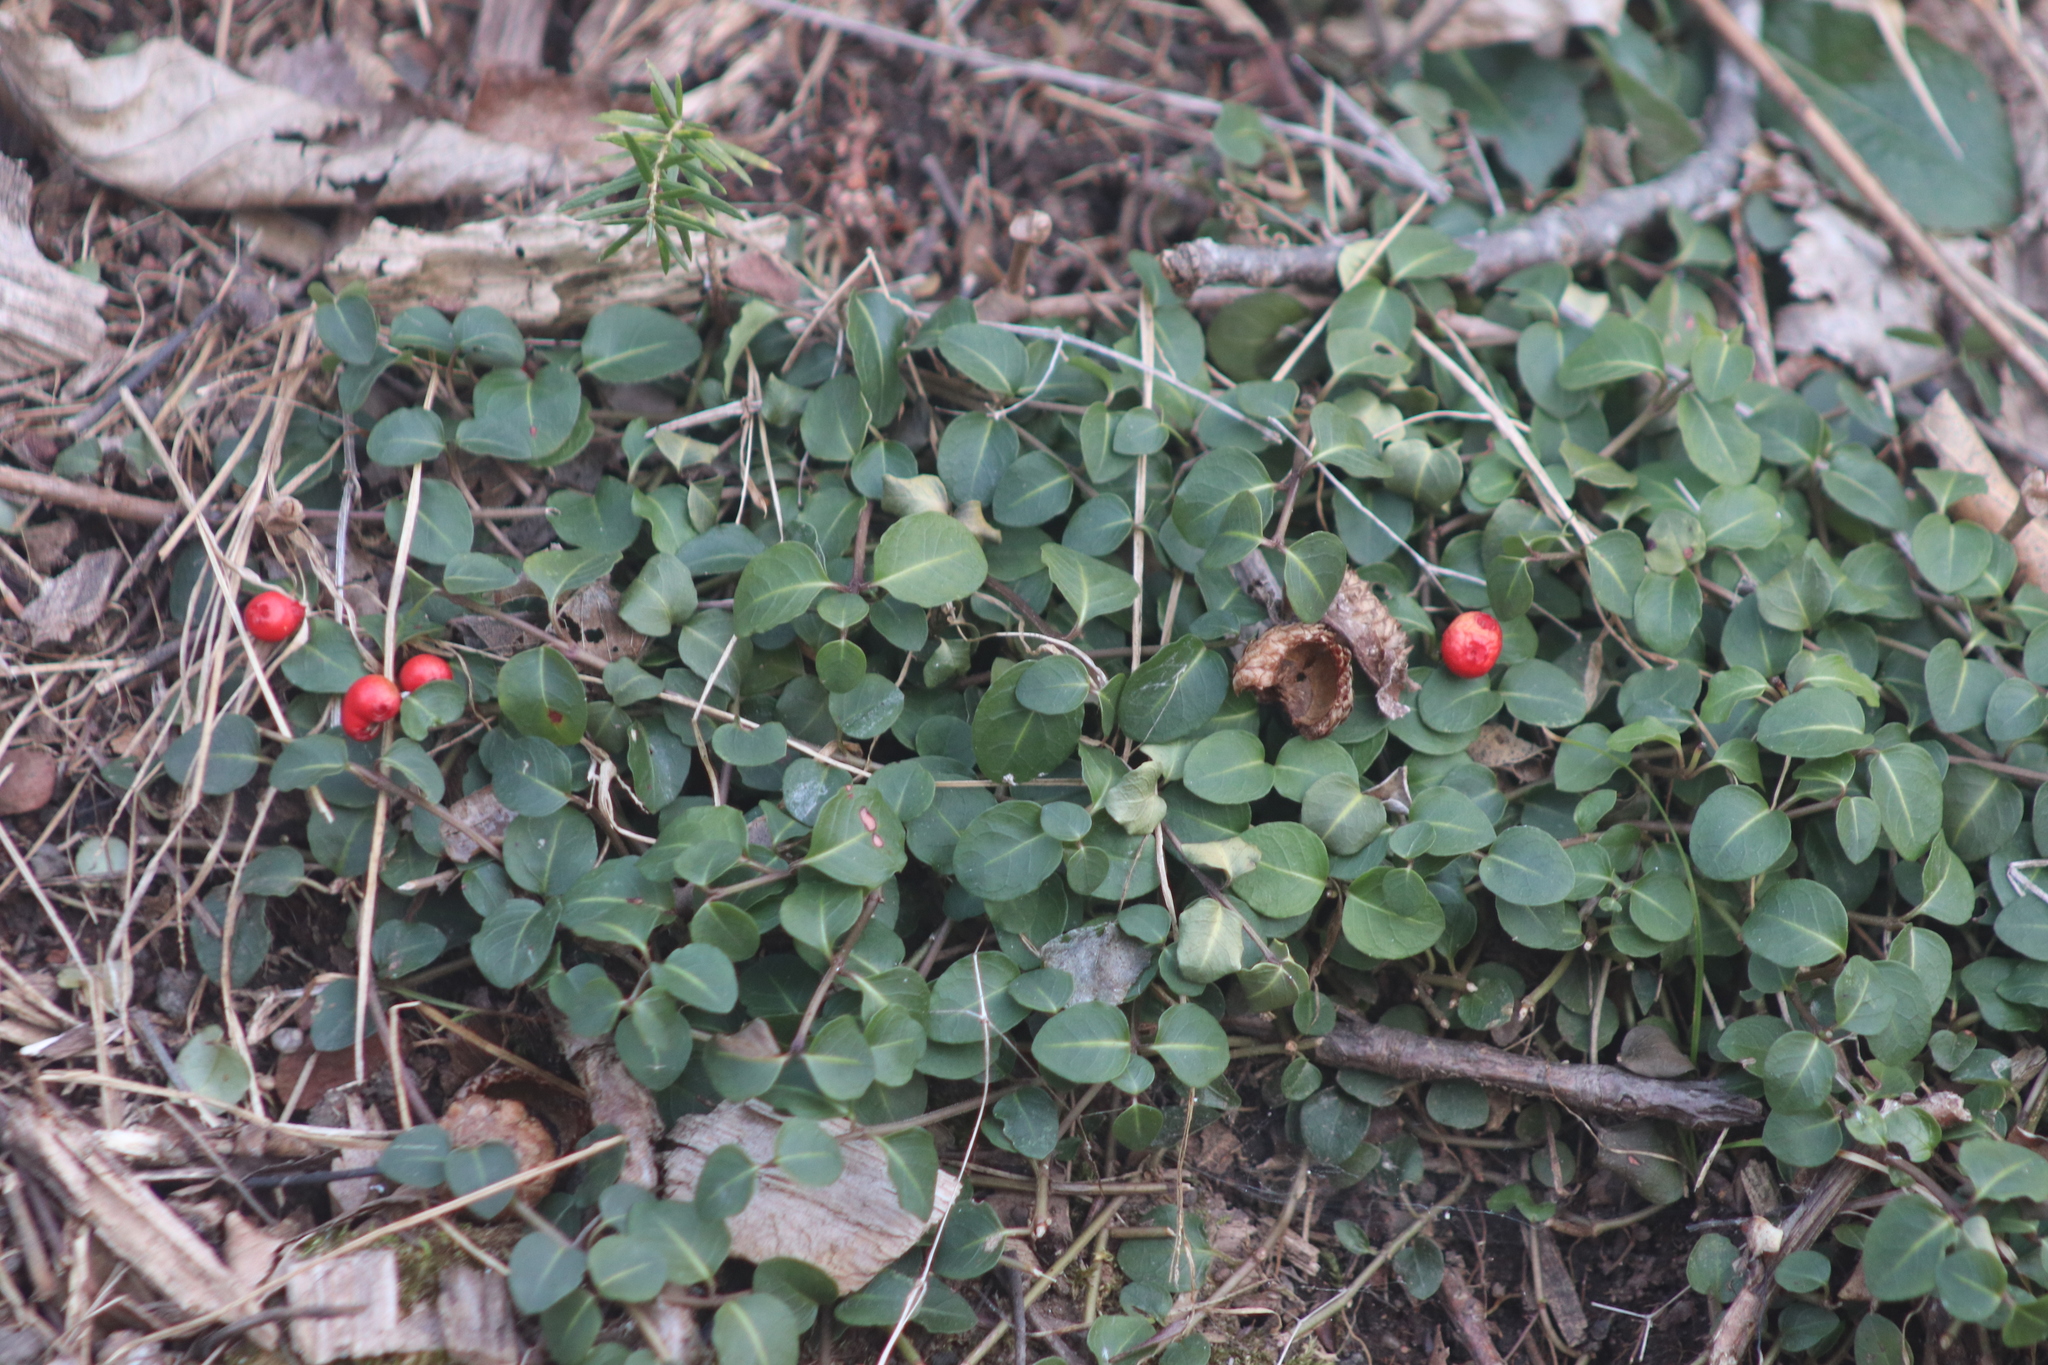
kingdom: Plantae
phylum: Tracheophyta
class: Magnoliopsida
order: Gentianales
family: Rubiaceae
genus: Mitchella
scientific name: Mitchella repens
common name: Partridge-berry
